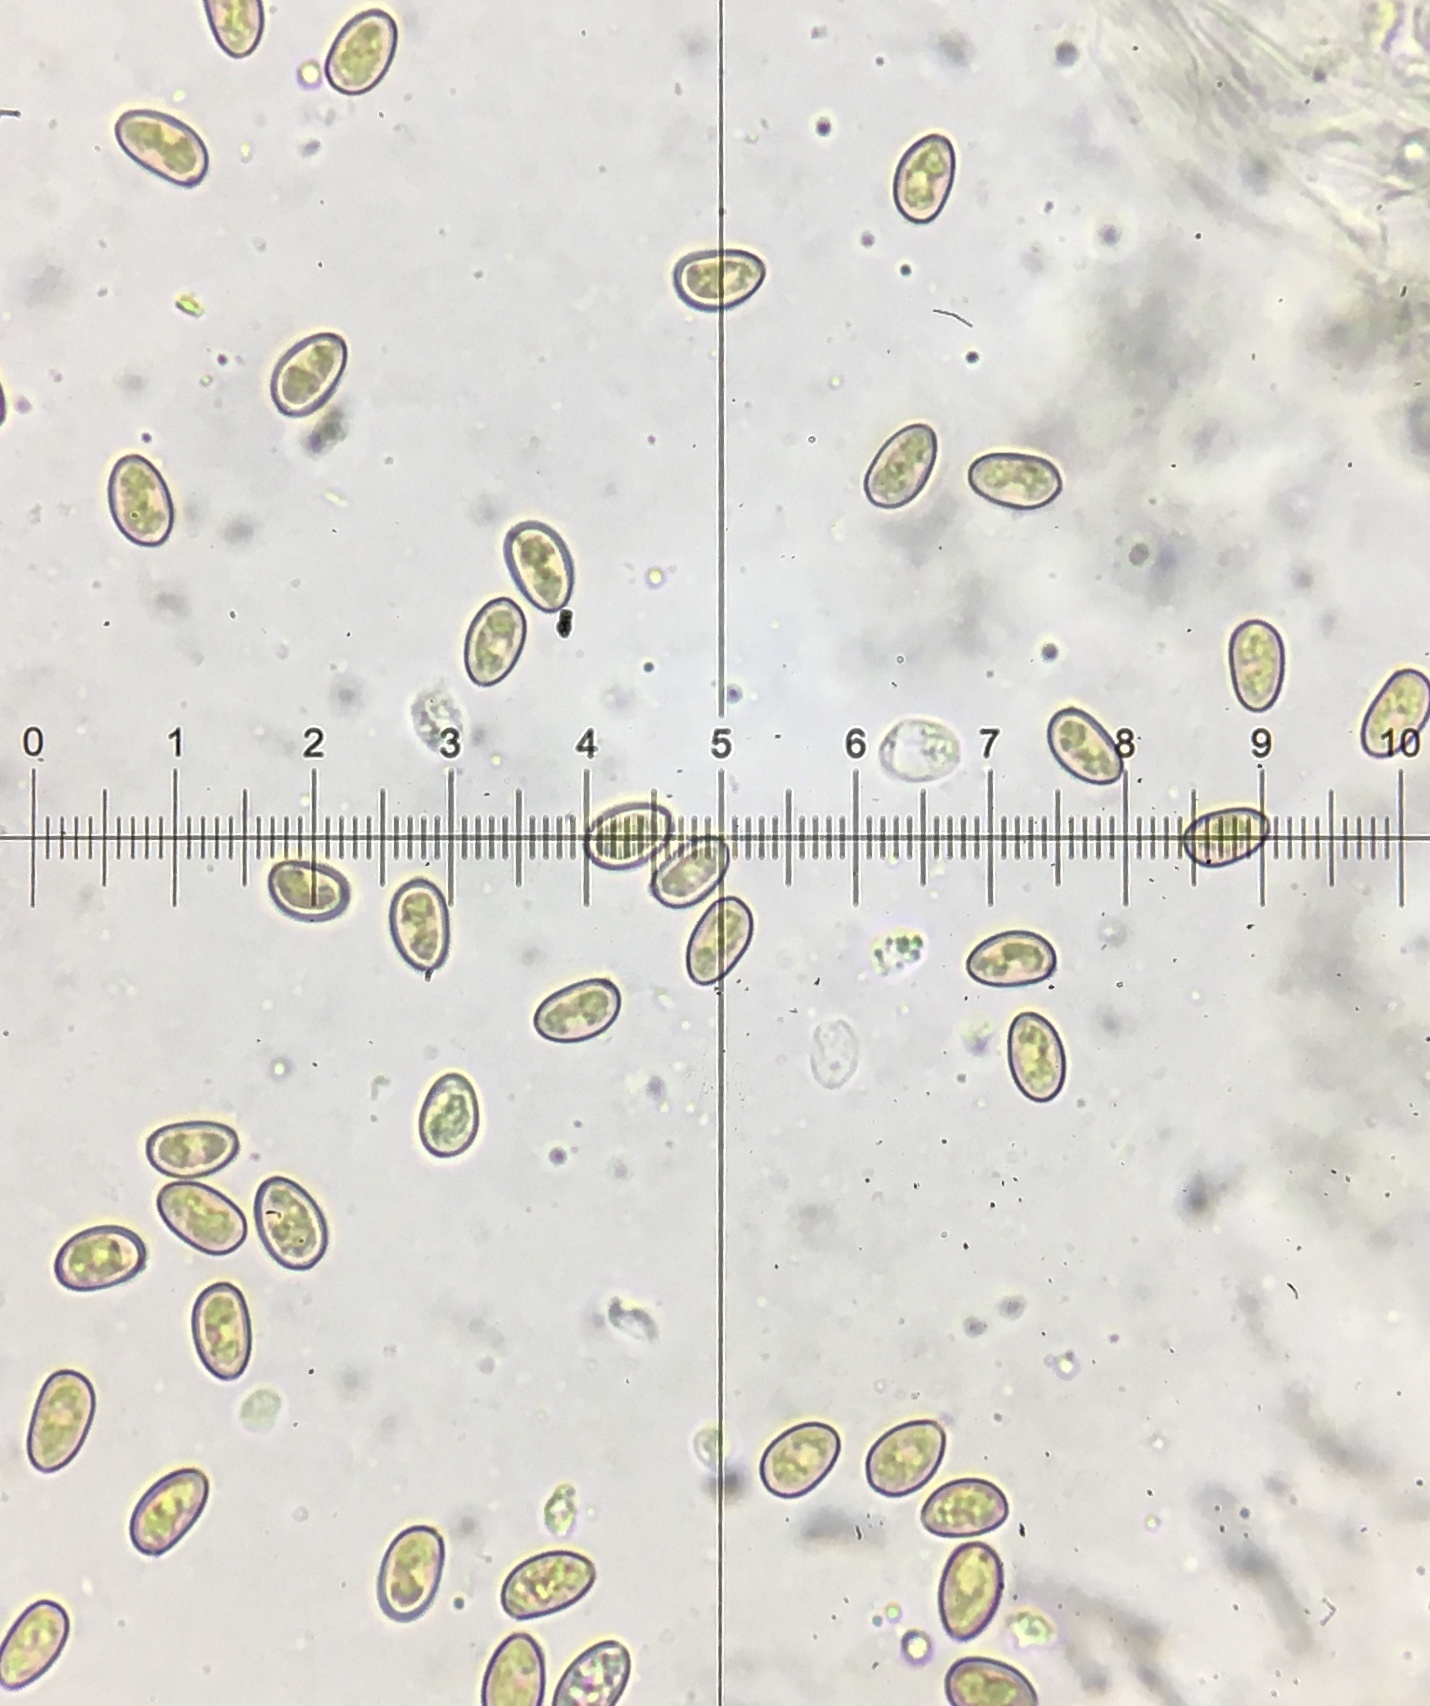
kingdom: Fungi
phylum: Basidiomycota
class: Agaricomycetes
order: Agaricales
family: Hymenogastraceae
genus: Gymnopilus
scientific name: Gymnopilus sapineus
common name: Scaly rustgill
